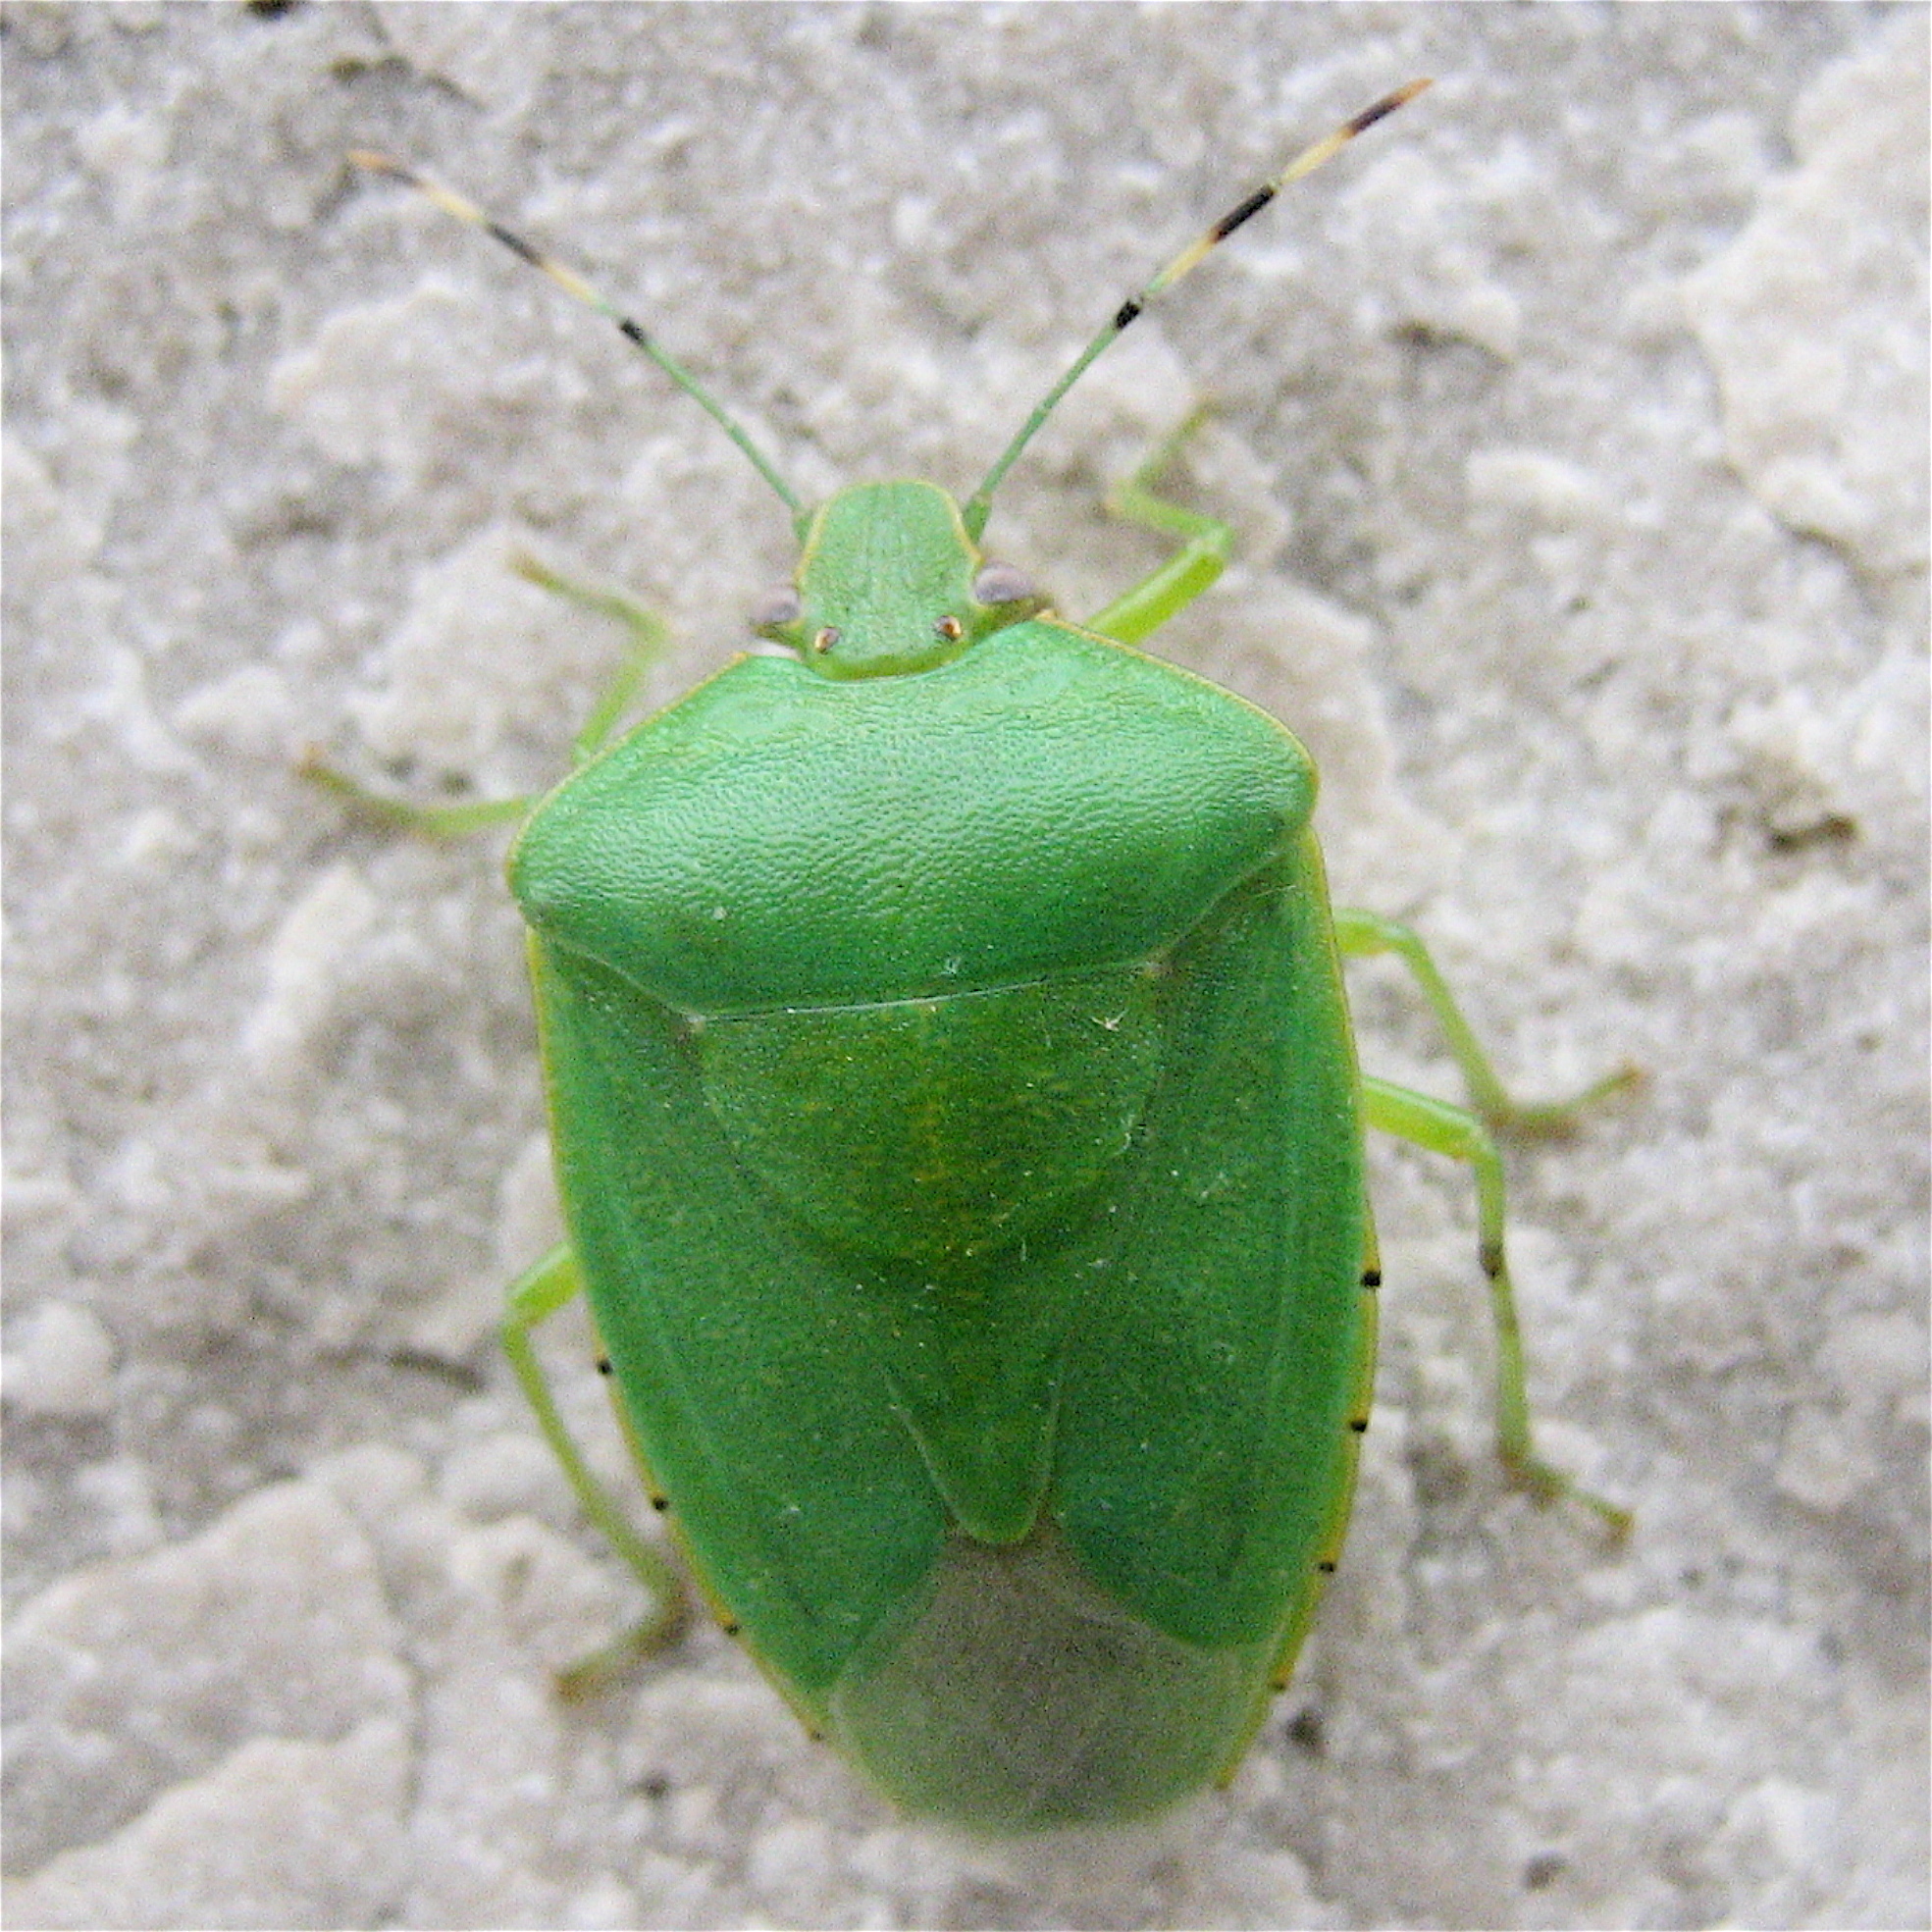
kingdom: Animalia
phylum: Arthropoda
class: Insecta
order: Hemiptera
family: Pentatomidae
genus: Chinavia
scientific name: Chinavia hilaris
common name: Green stink bug
